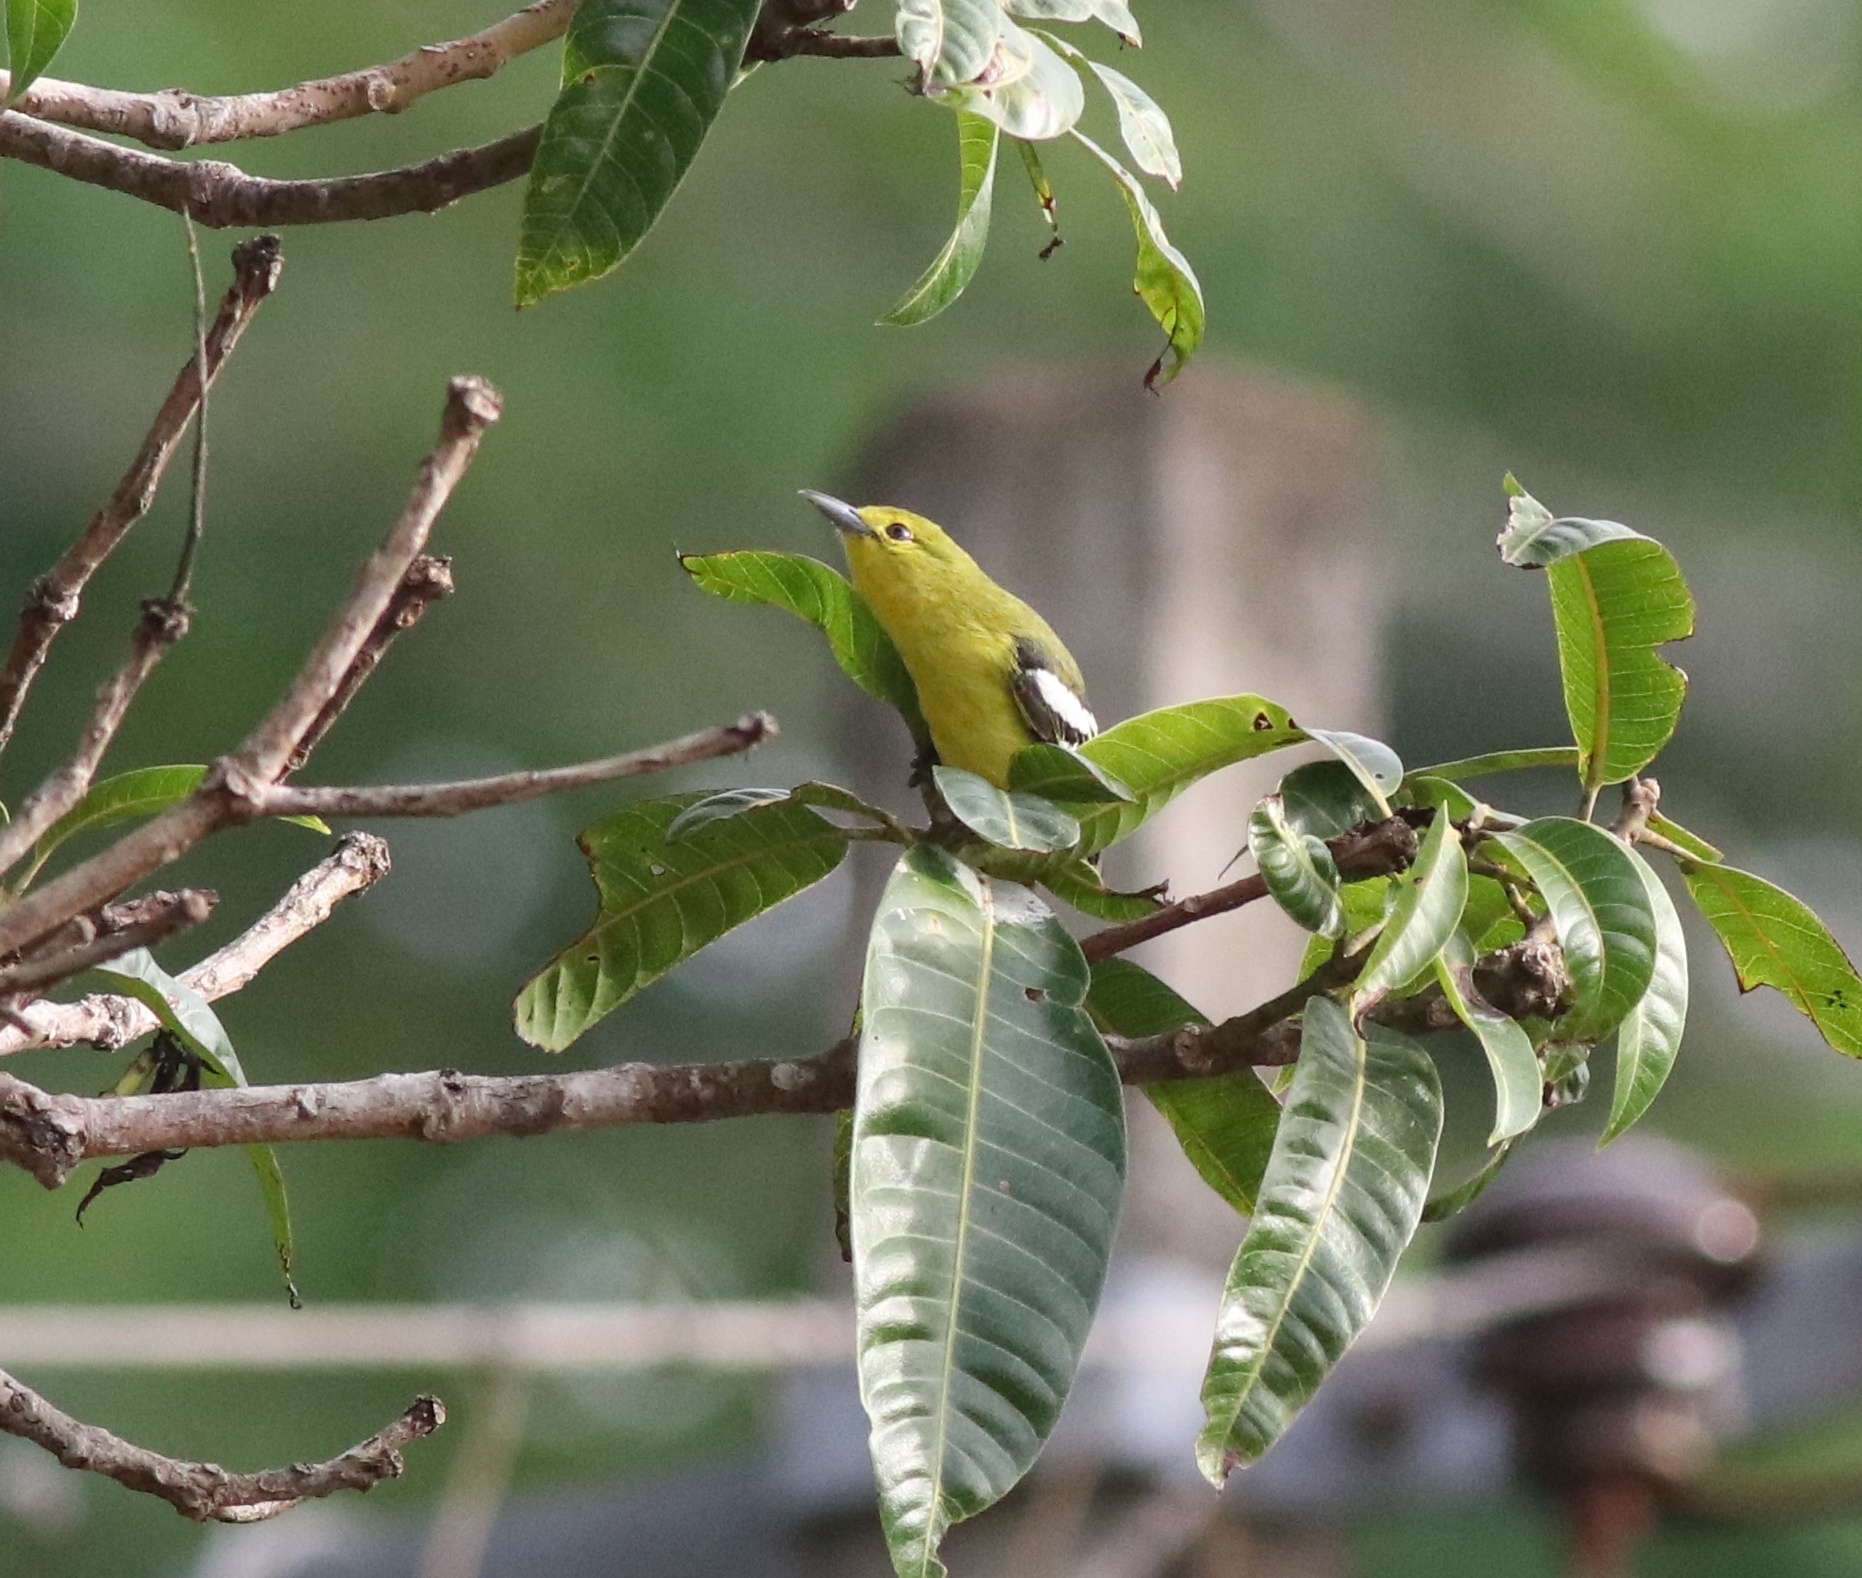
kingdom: Animalia
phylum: Chordata
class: Aves
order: Passeriformes
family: Aegithinidae
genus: Aegithina
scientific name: Aegithina tiphia
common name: Common iora
